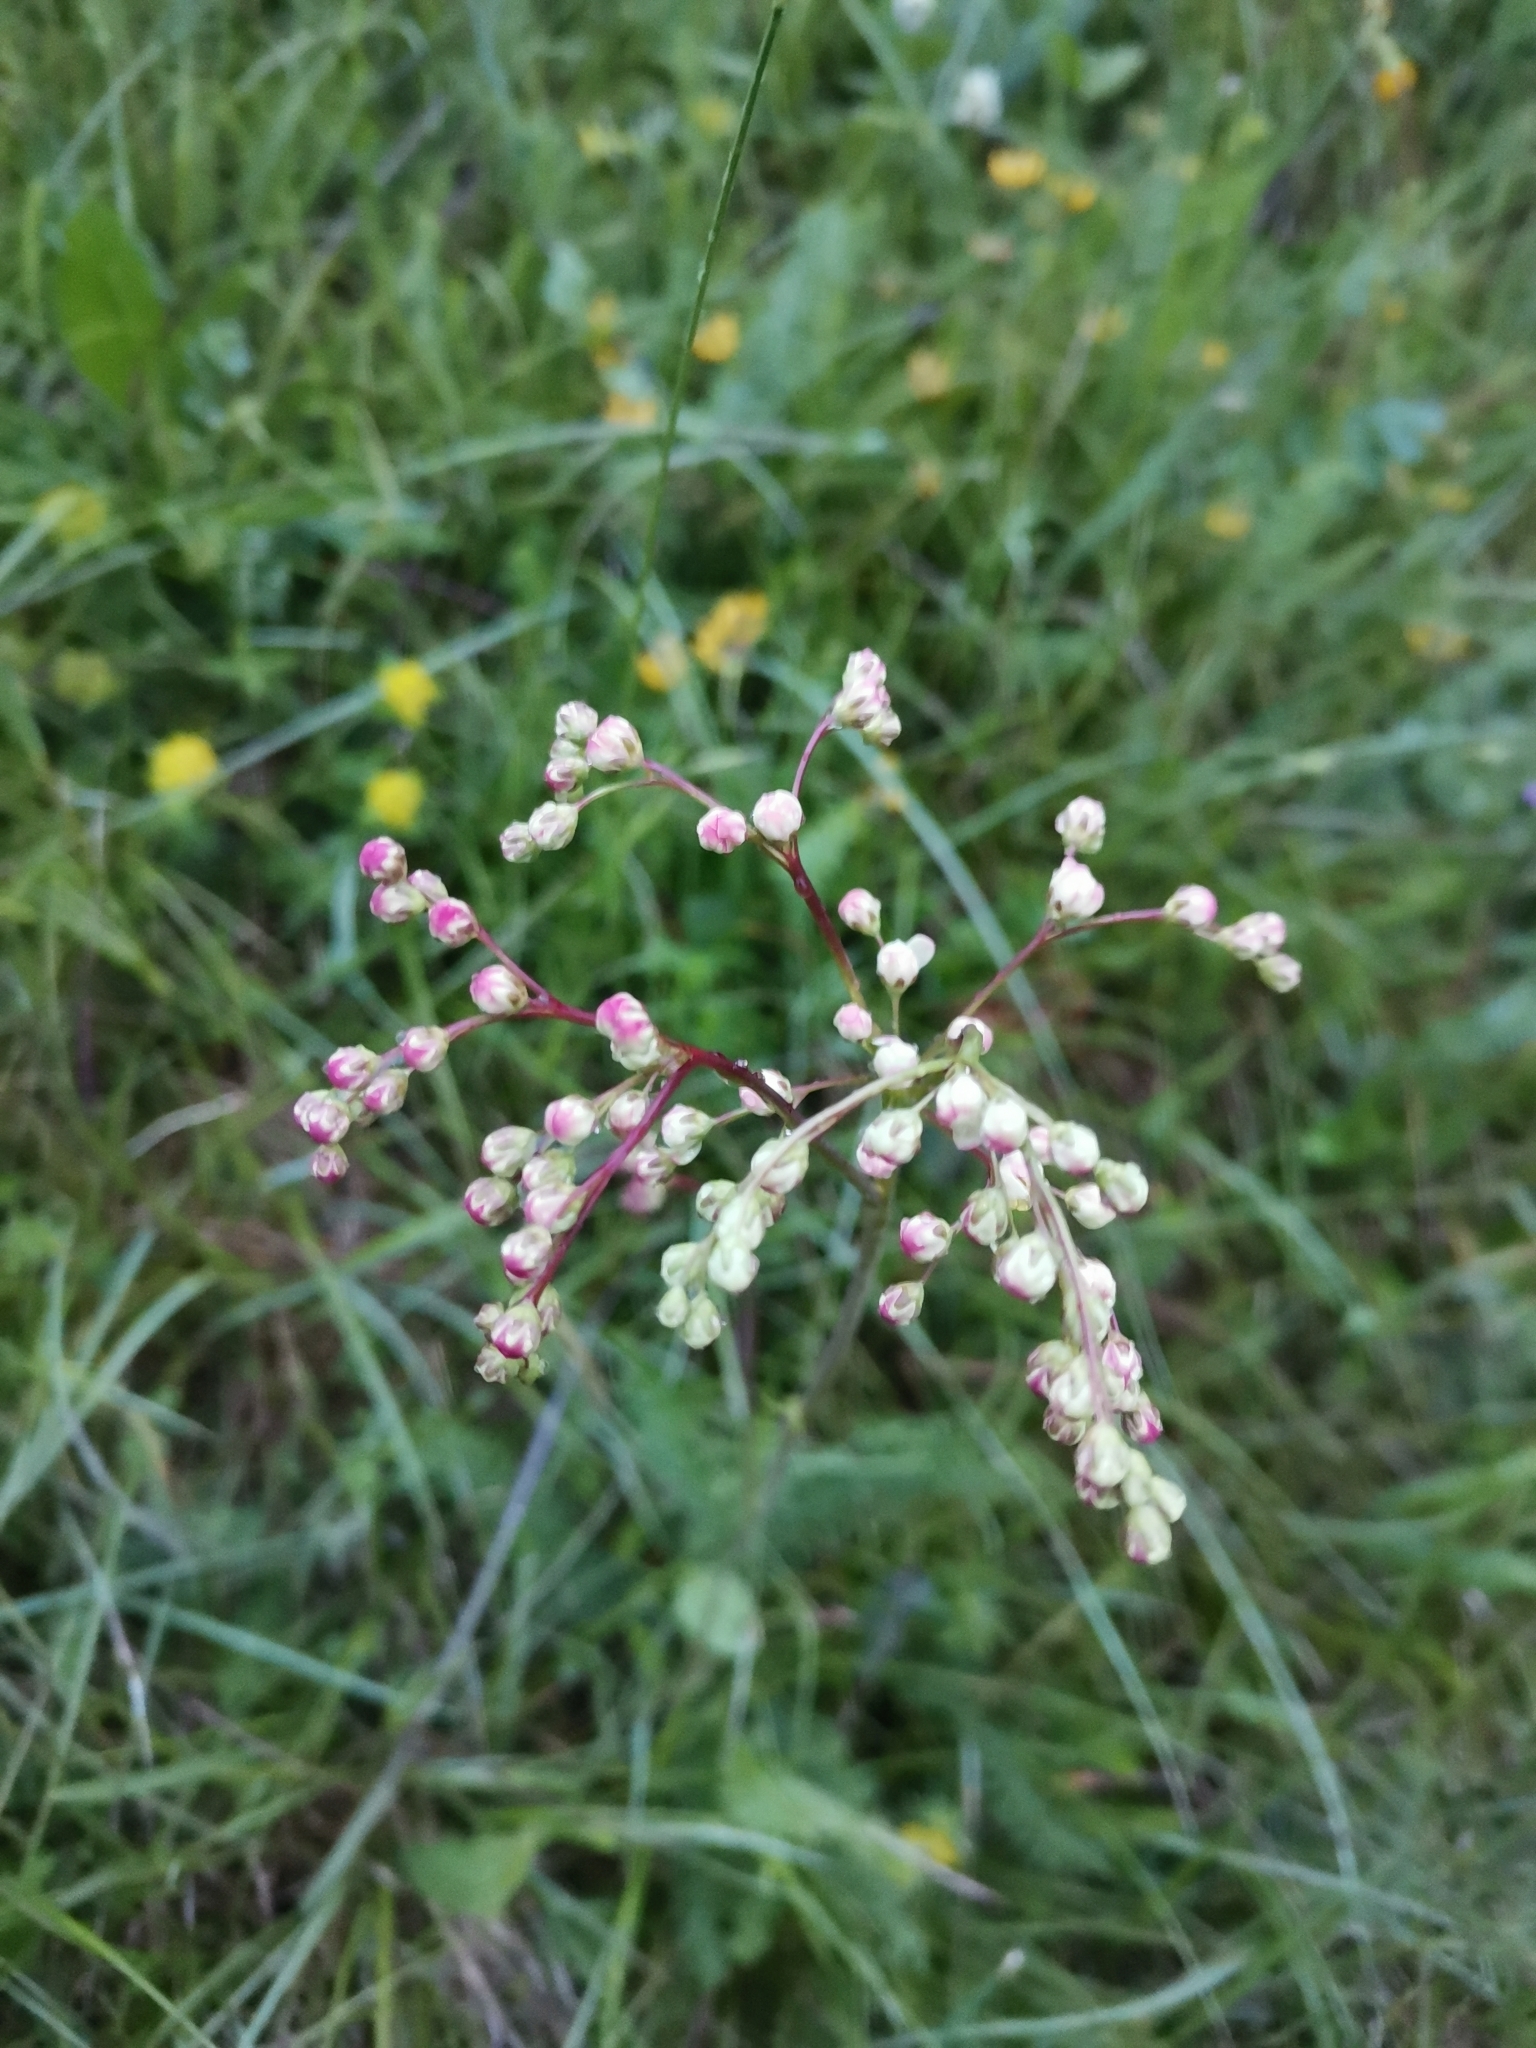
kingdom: Plantae
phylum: Tracheophyta
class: Magnoliopsida
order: Rosales
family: Rosaceae
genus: Filipendula
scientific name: Filipendula vulgaris
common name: Dropwort
